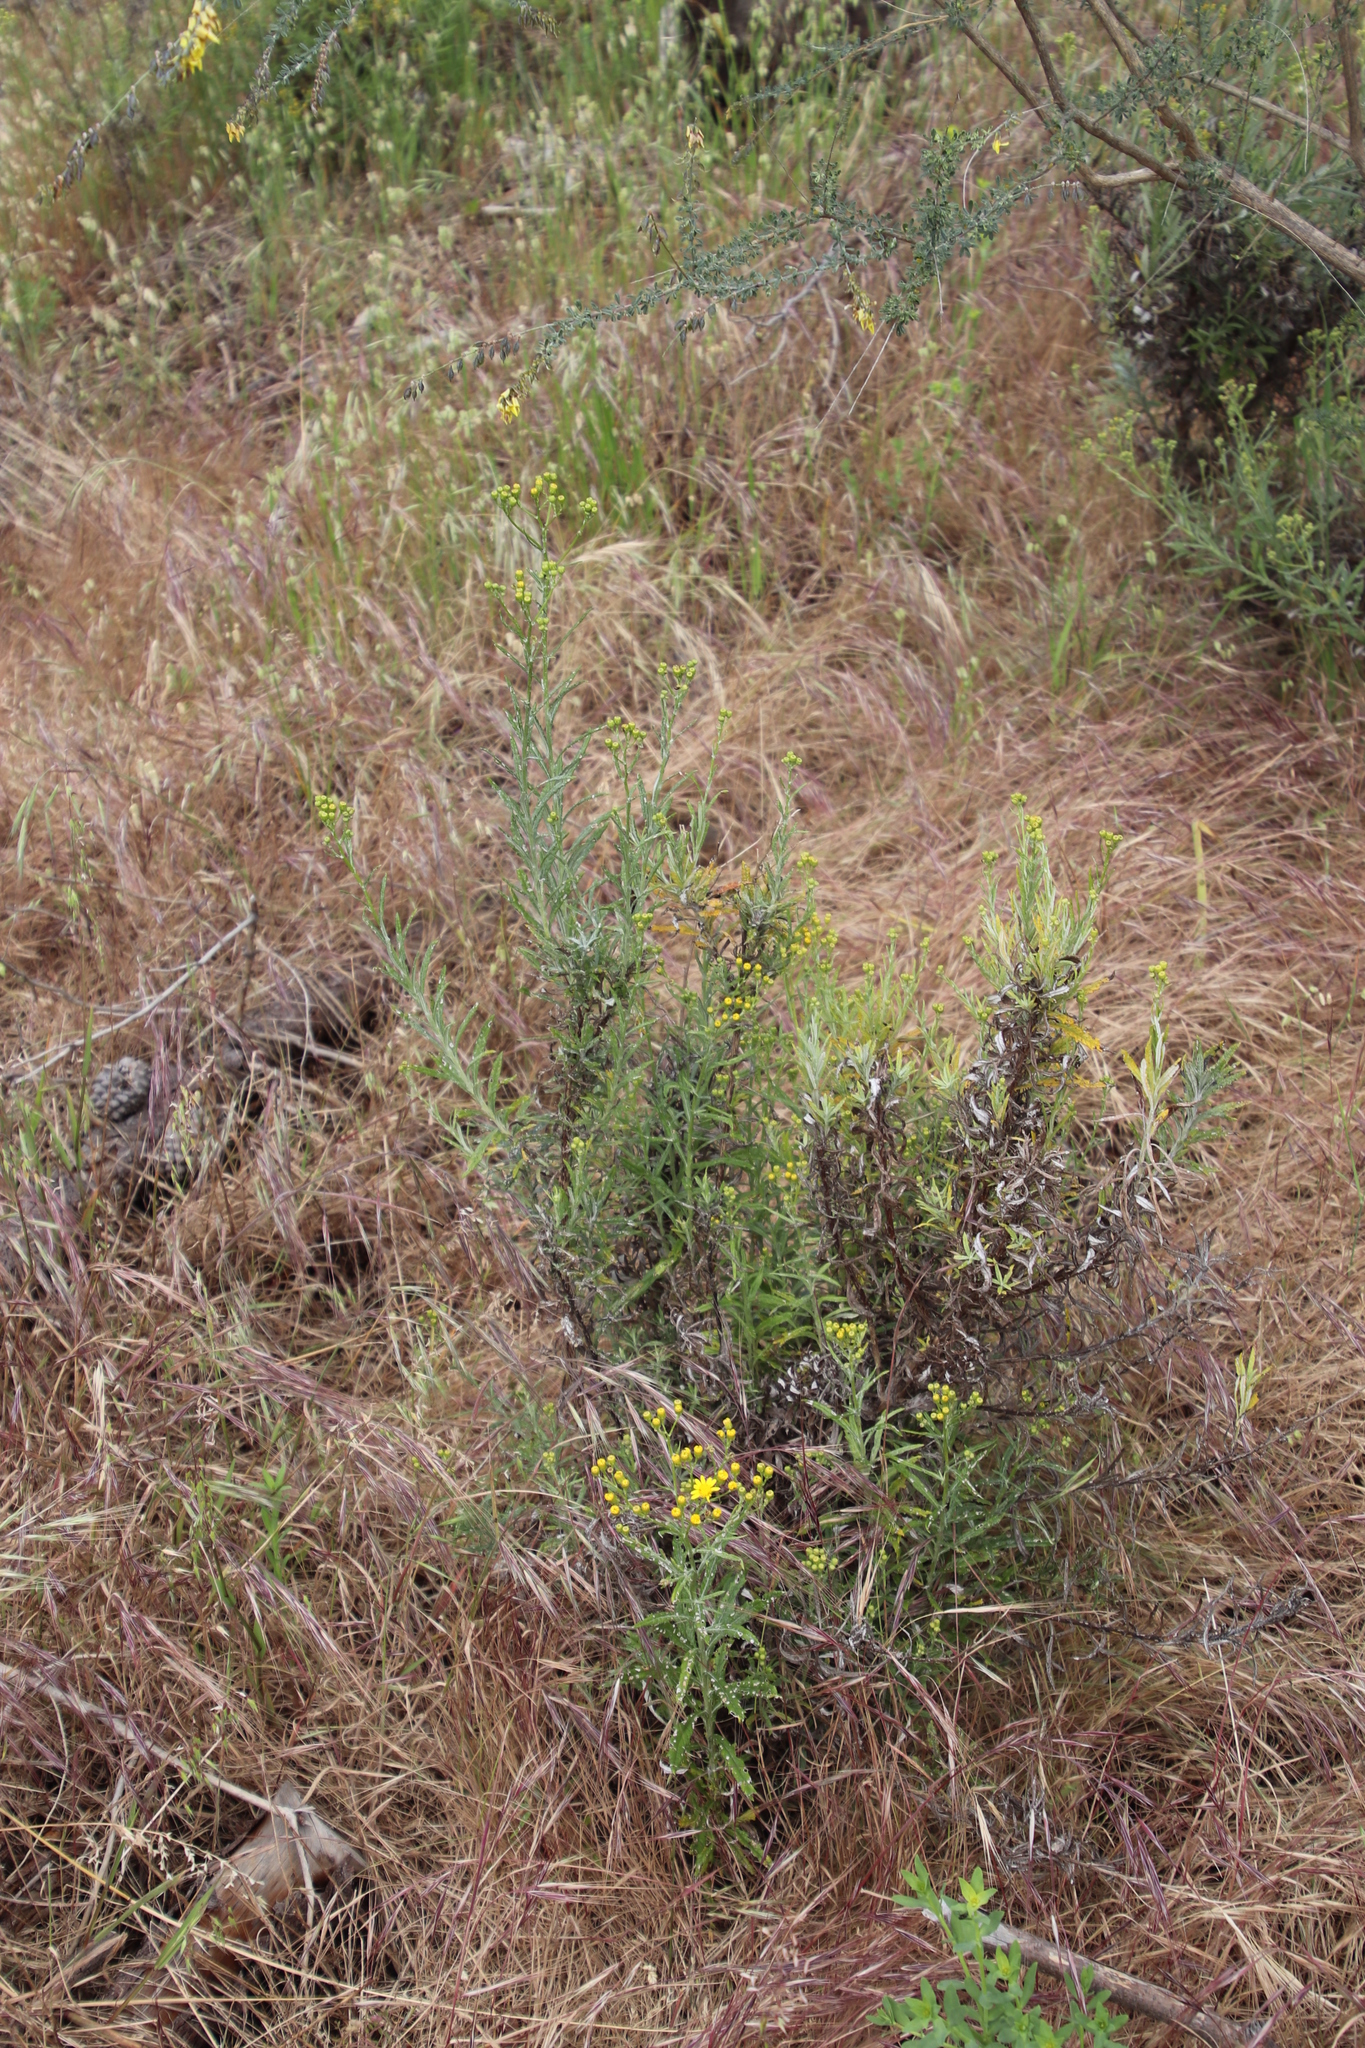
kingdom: Plantae
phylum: Tracheophyta
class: Magnoliopsida
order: Asterales
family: Asteraceae
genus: Senecio
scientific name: Senecio pterophorus
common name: Shoddy ragwort
